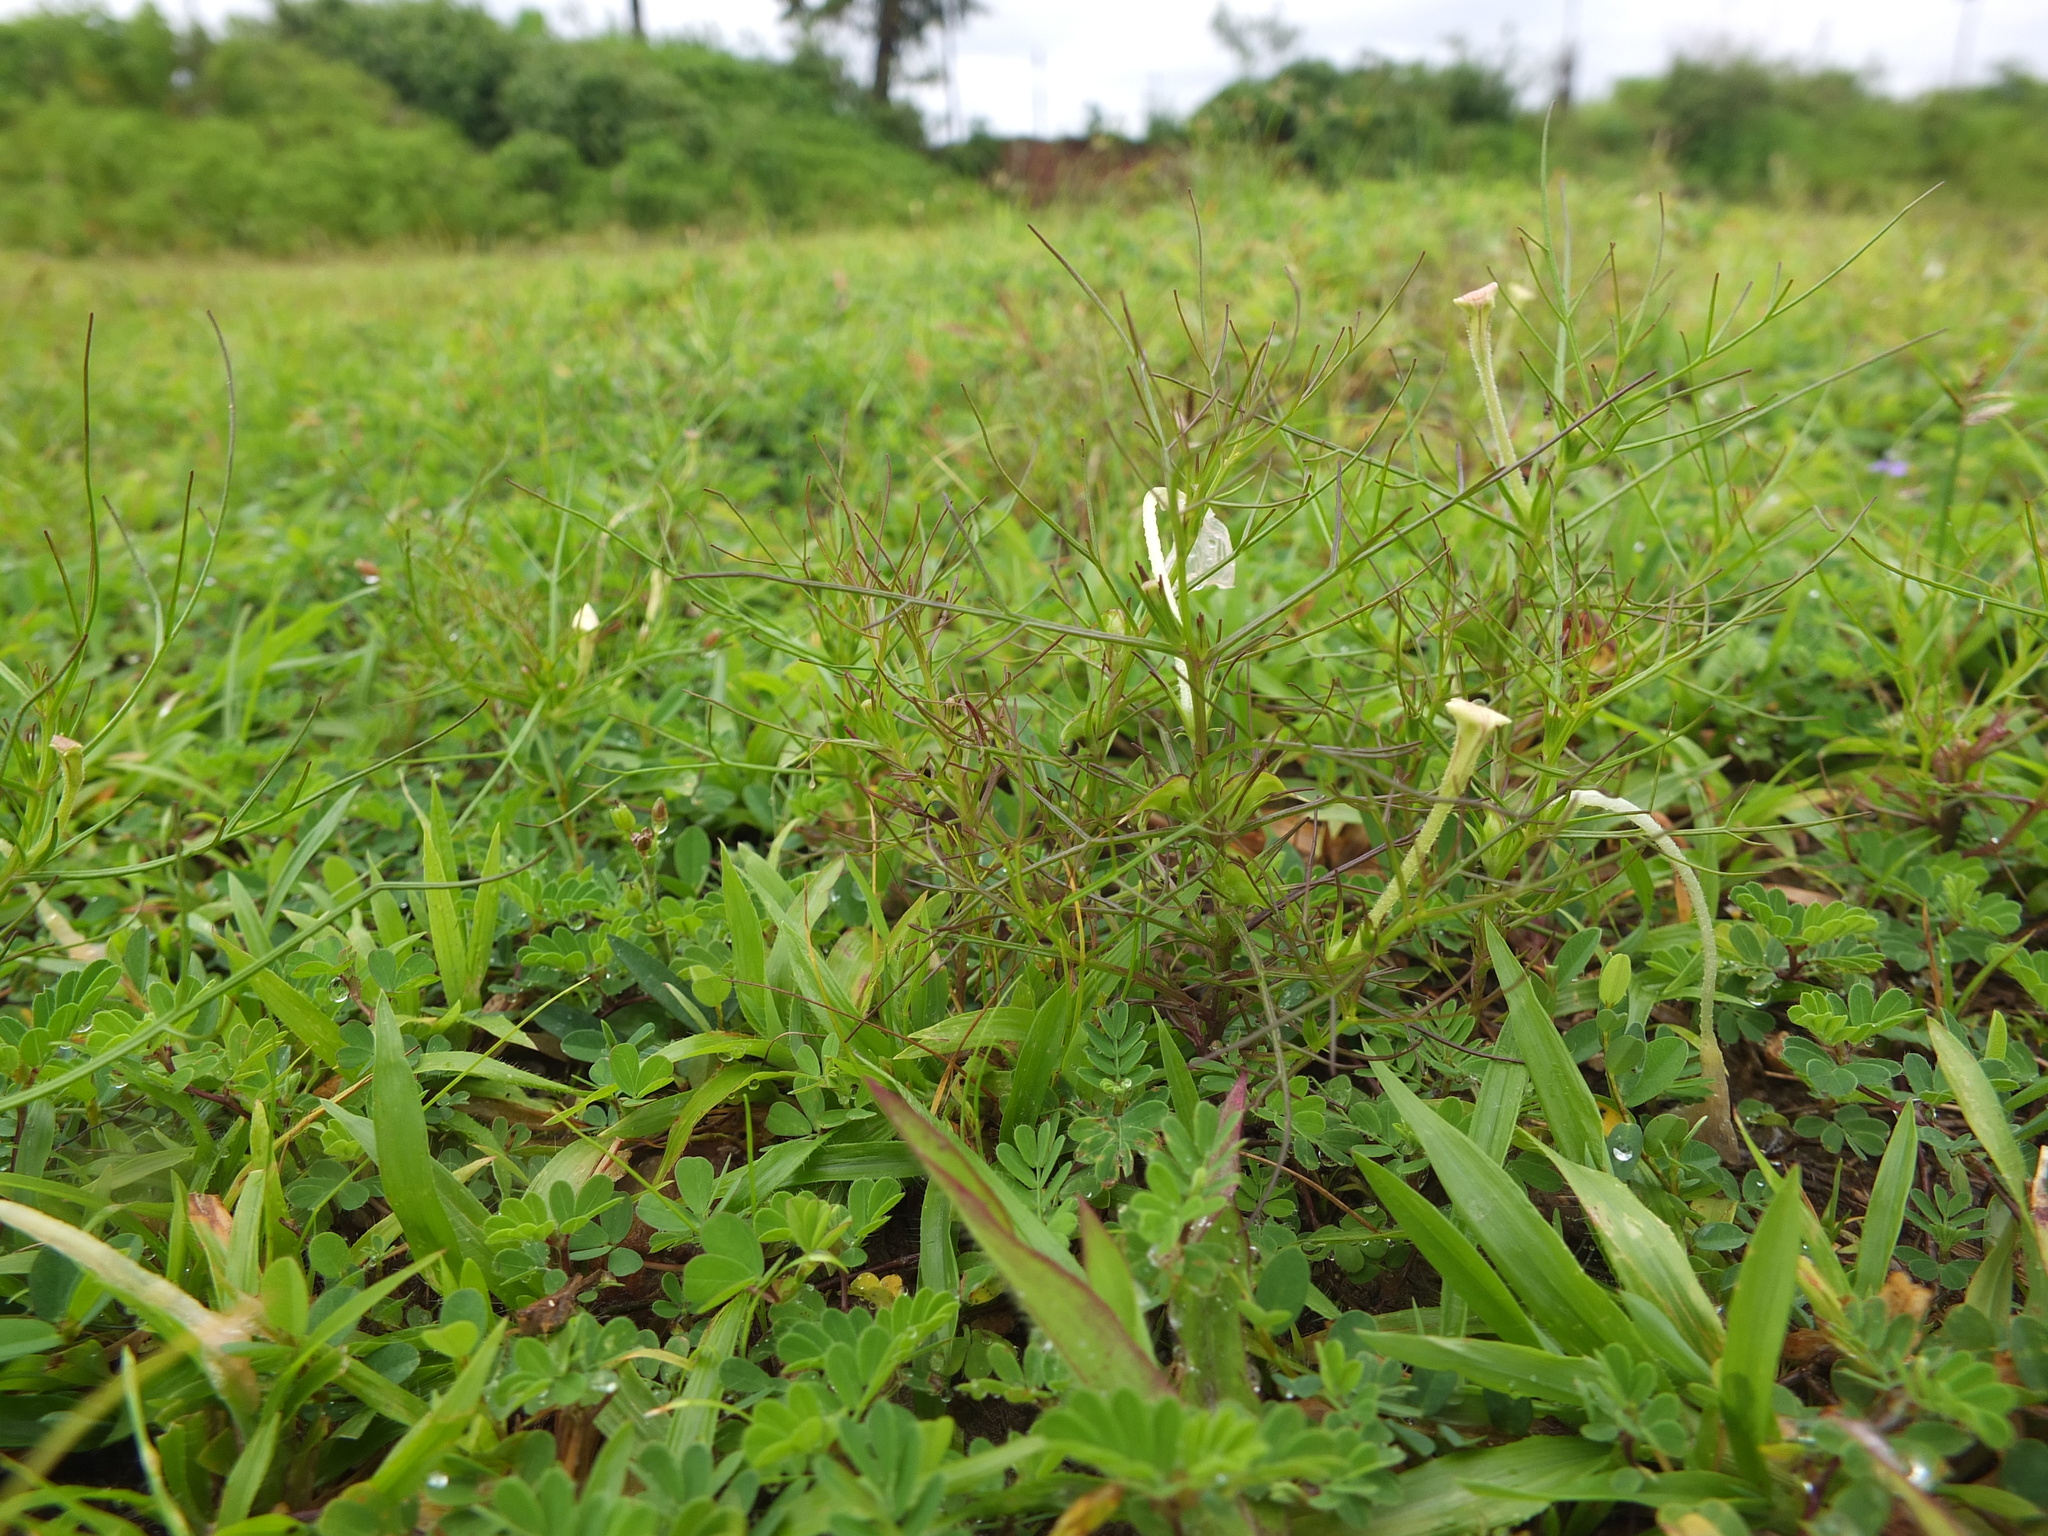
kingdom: Plantae
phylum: Tracheophyta
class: Magnoliopsida
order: Lamiales
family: Orobanchaceae
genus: Rhamphicarpa
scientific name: Rhamphicarpa fistulosa
